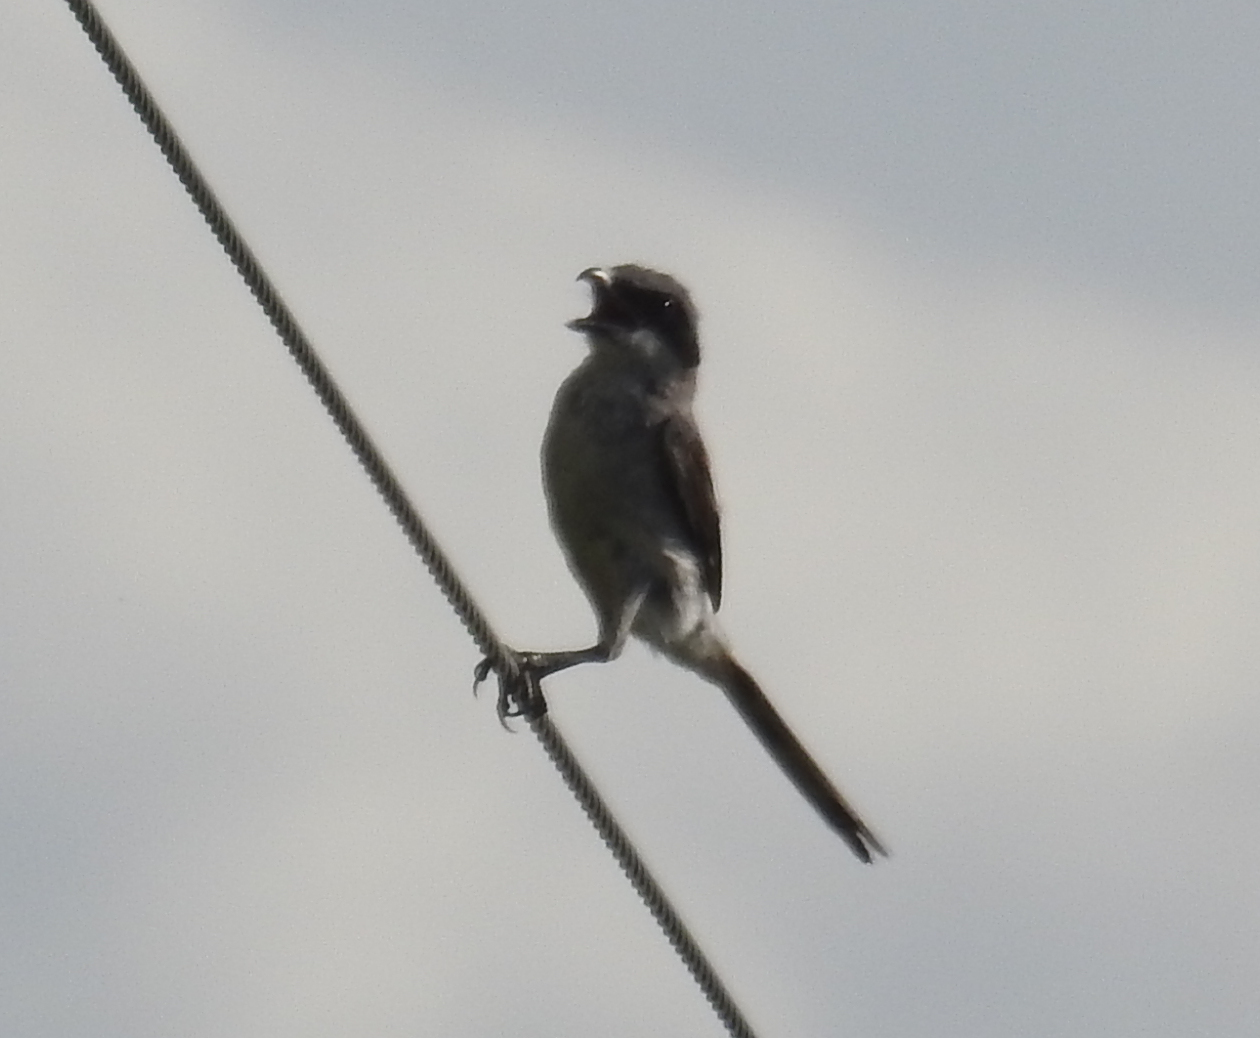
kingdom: Animalia
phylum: Chordata
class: Aves
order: Passeriformes
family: Laniidae
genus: Lanius
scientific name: Lanius ludovicianus
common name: Loggerhead shrike
